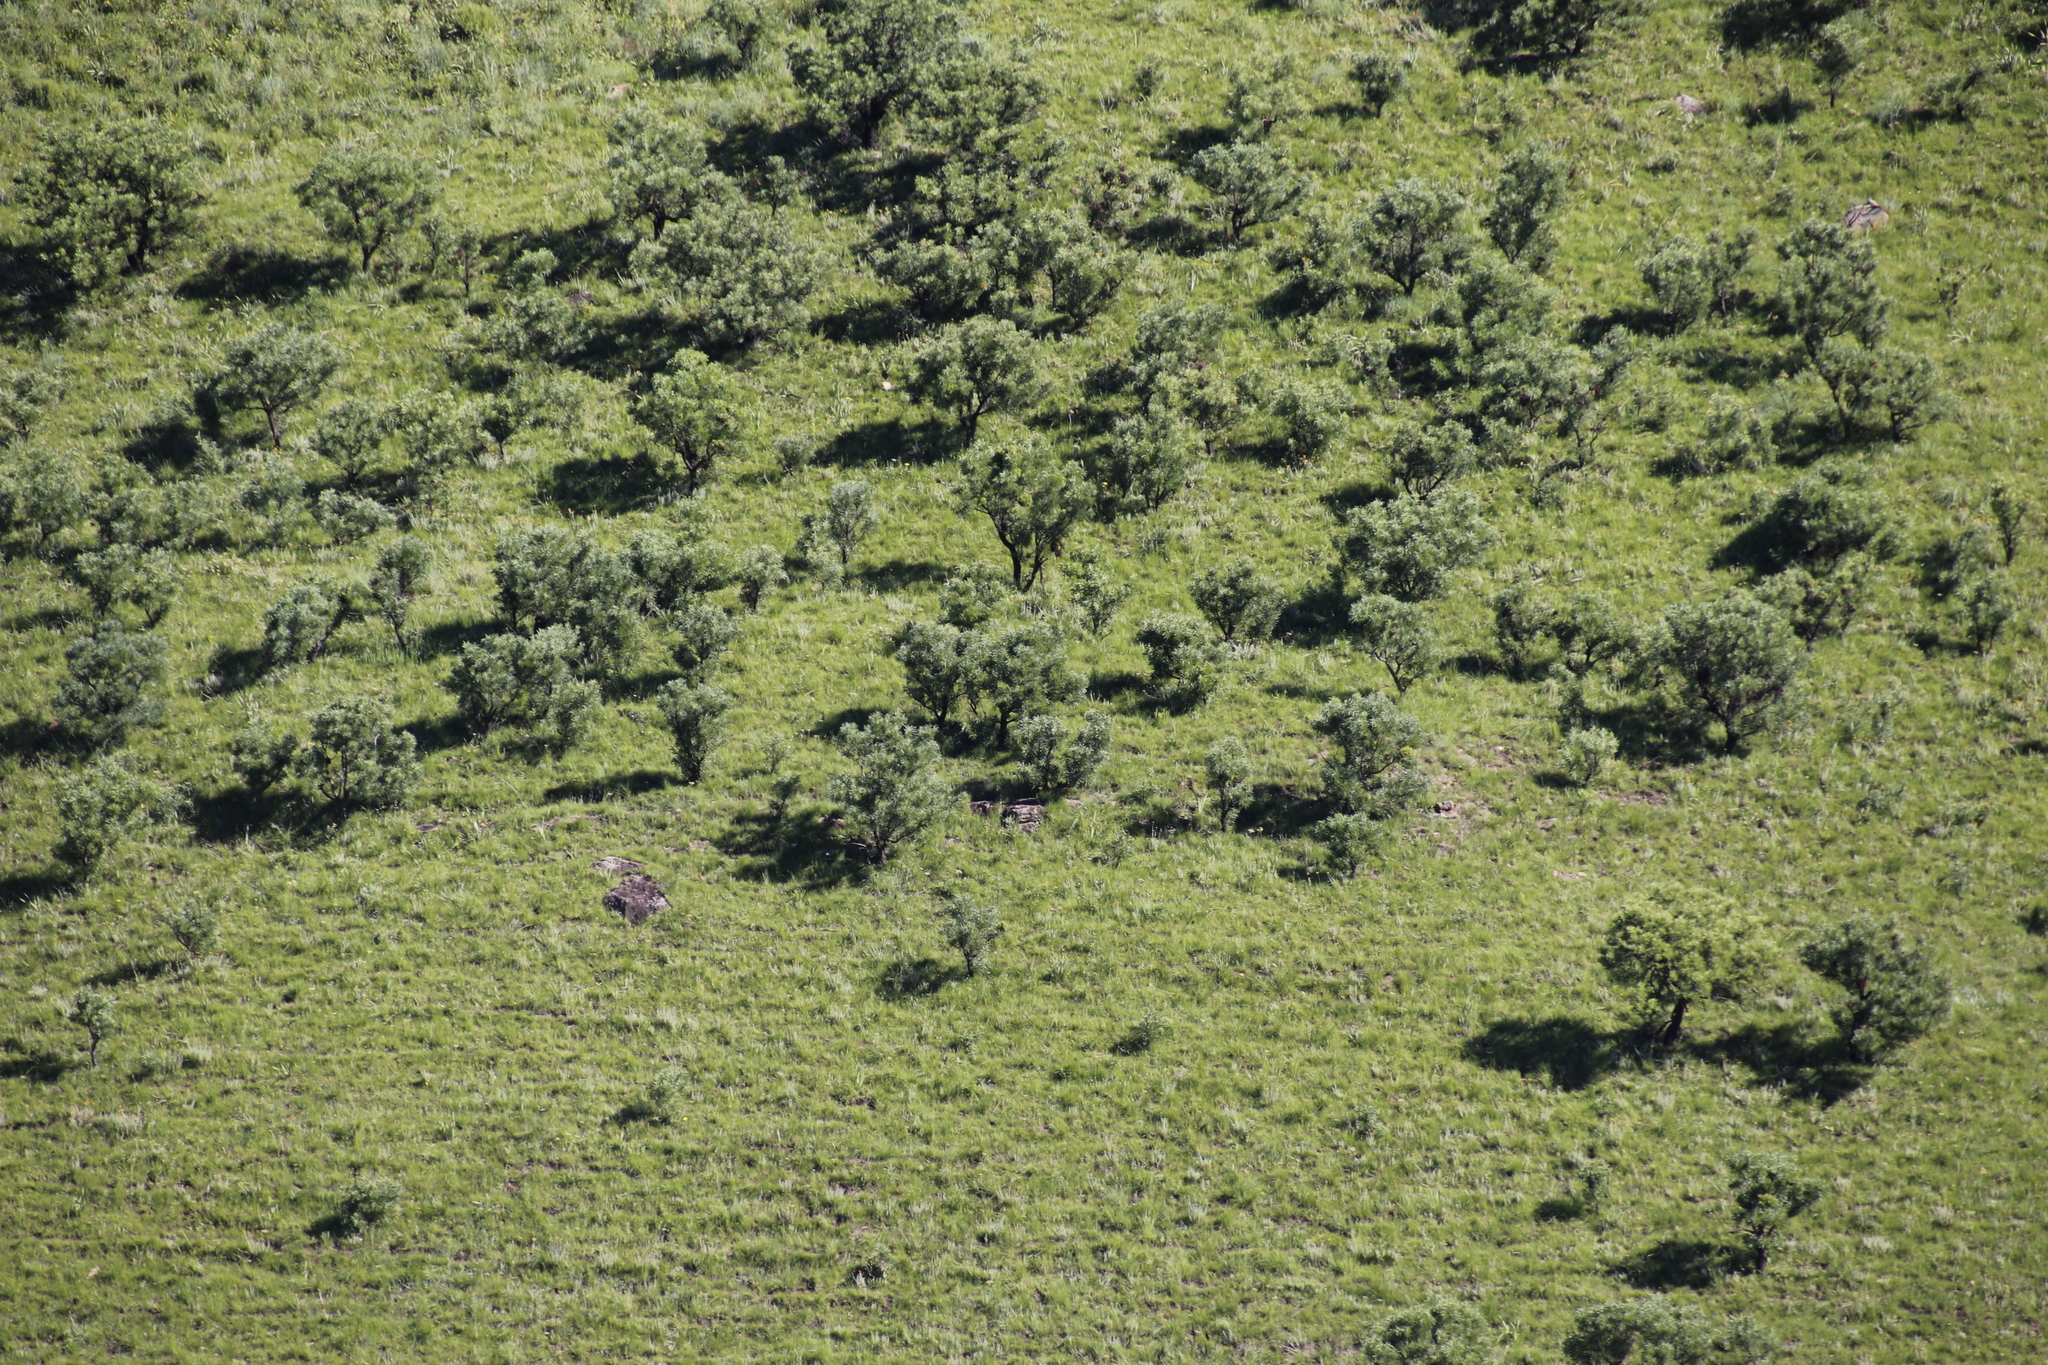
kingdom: Plantae
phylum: Tracheophyta
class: Magnoliopsida
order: Proteales
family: Proteaceae
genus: Protea
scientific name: Protea caffra
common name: Common sugarbush
